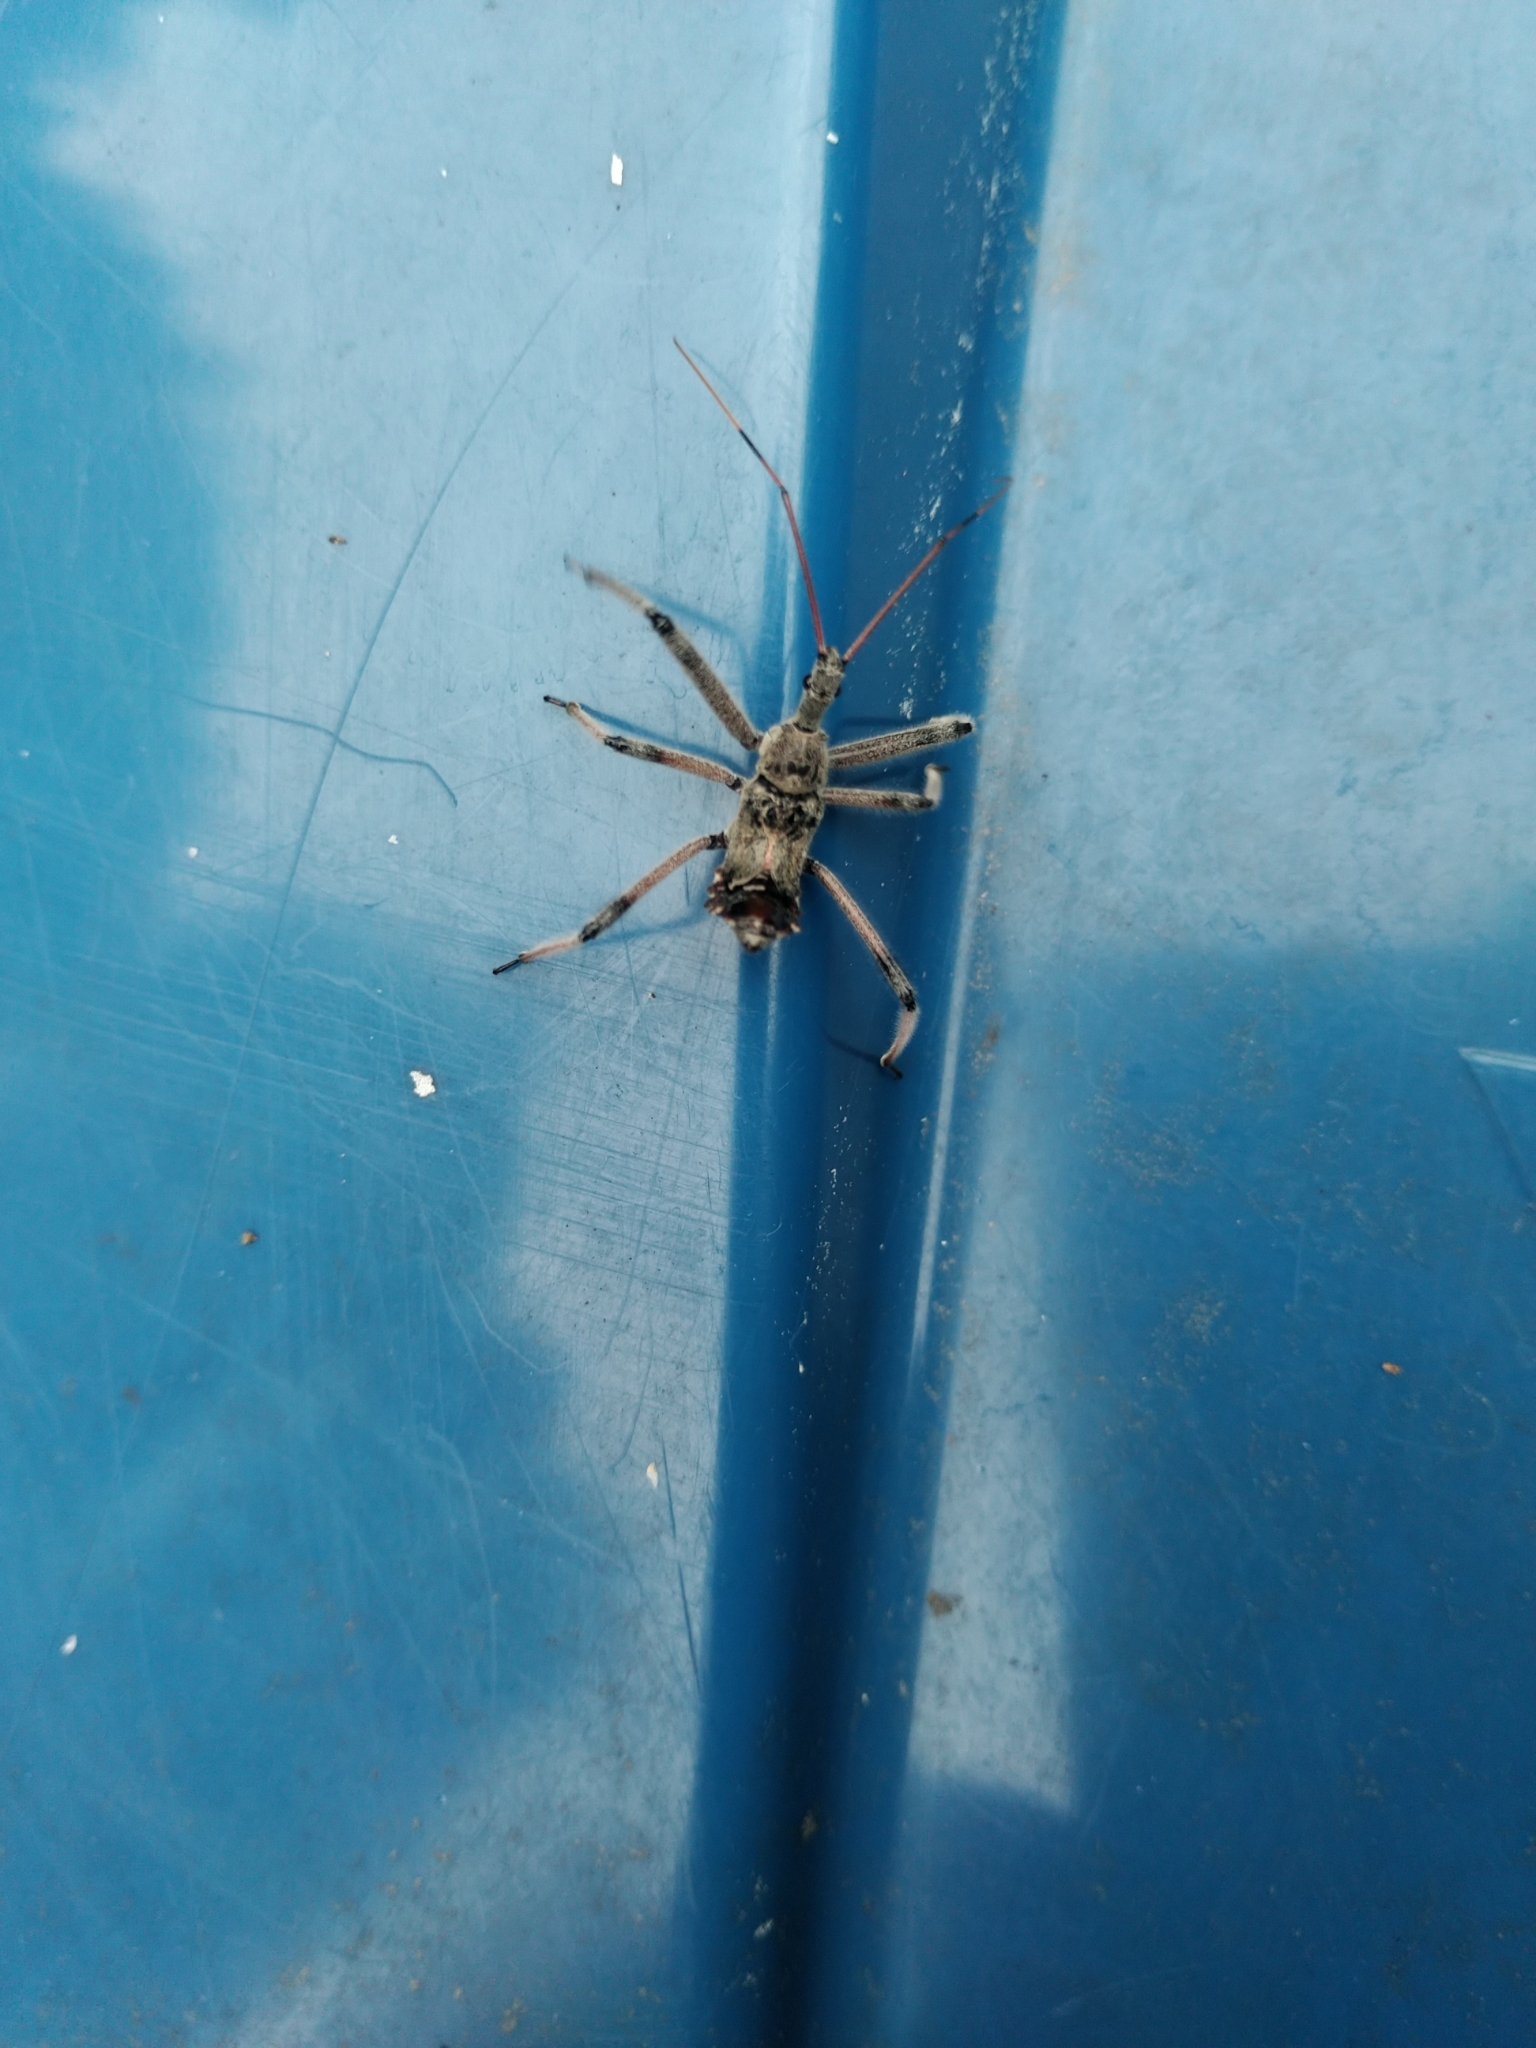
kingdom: Animalia
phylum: Arthropoda
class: Insecta
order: Hemiptera
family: Reduviidae
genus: Arilus
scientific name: Arilus cristatus
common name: North american wheel bug
